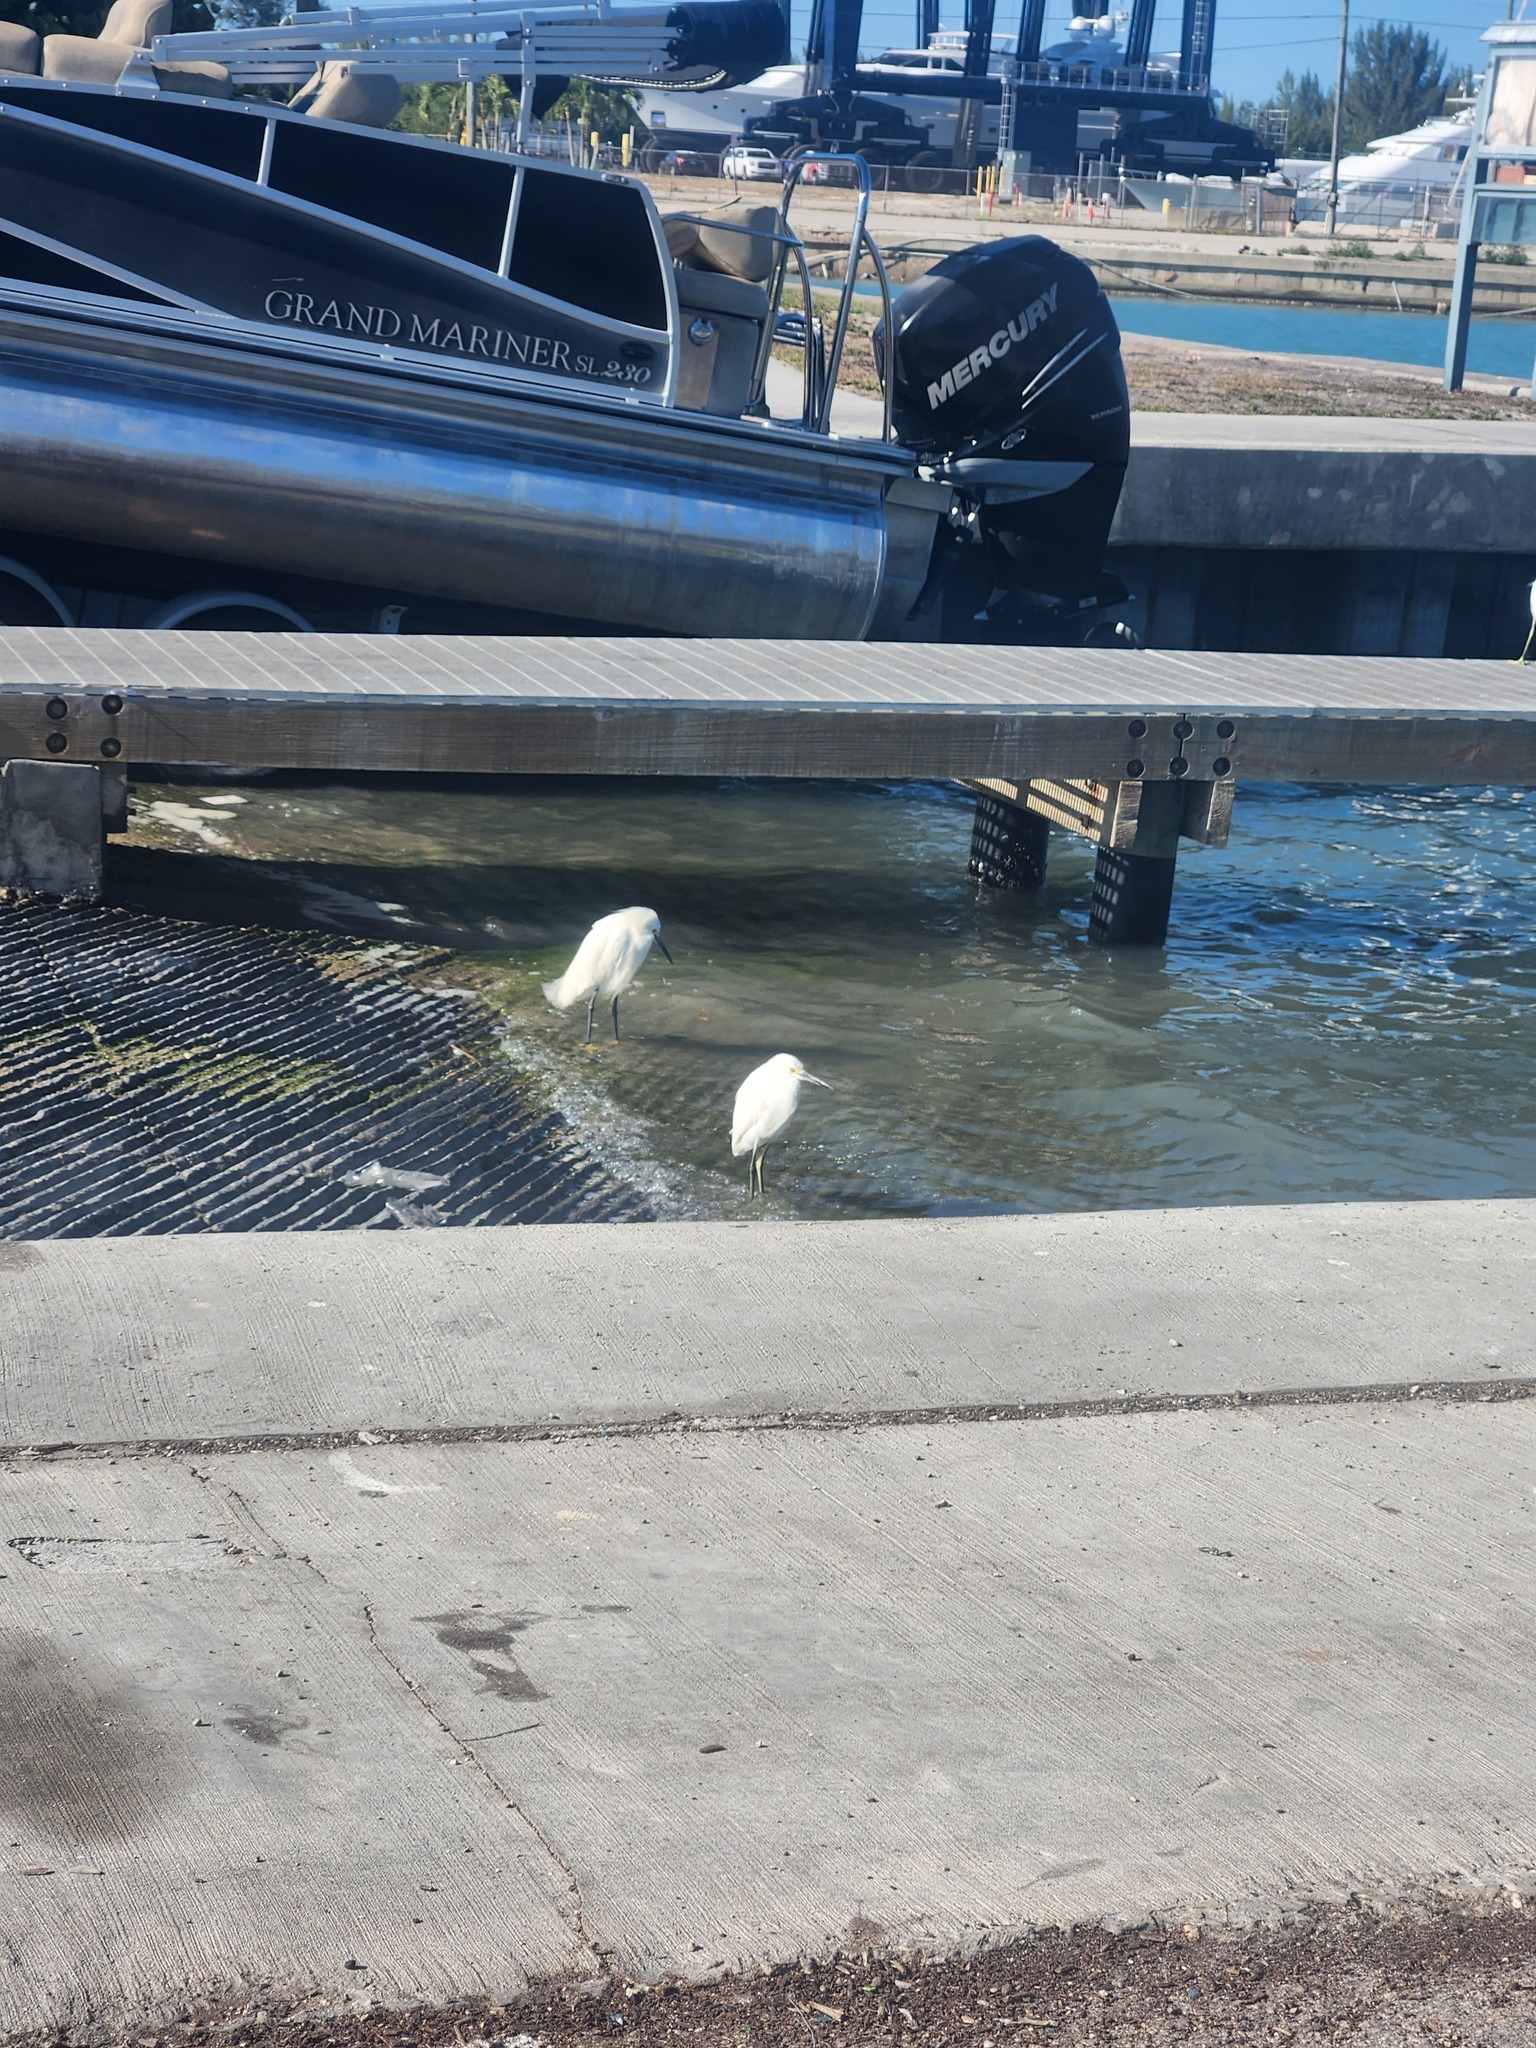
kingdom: Animalia
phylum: Chordata
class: Aves
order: Pelecaniformes
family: Ardeidae
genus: Egretta
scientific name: Egretta thula
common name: Snowy egret
